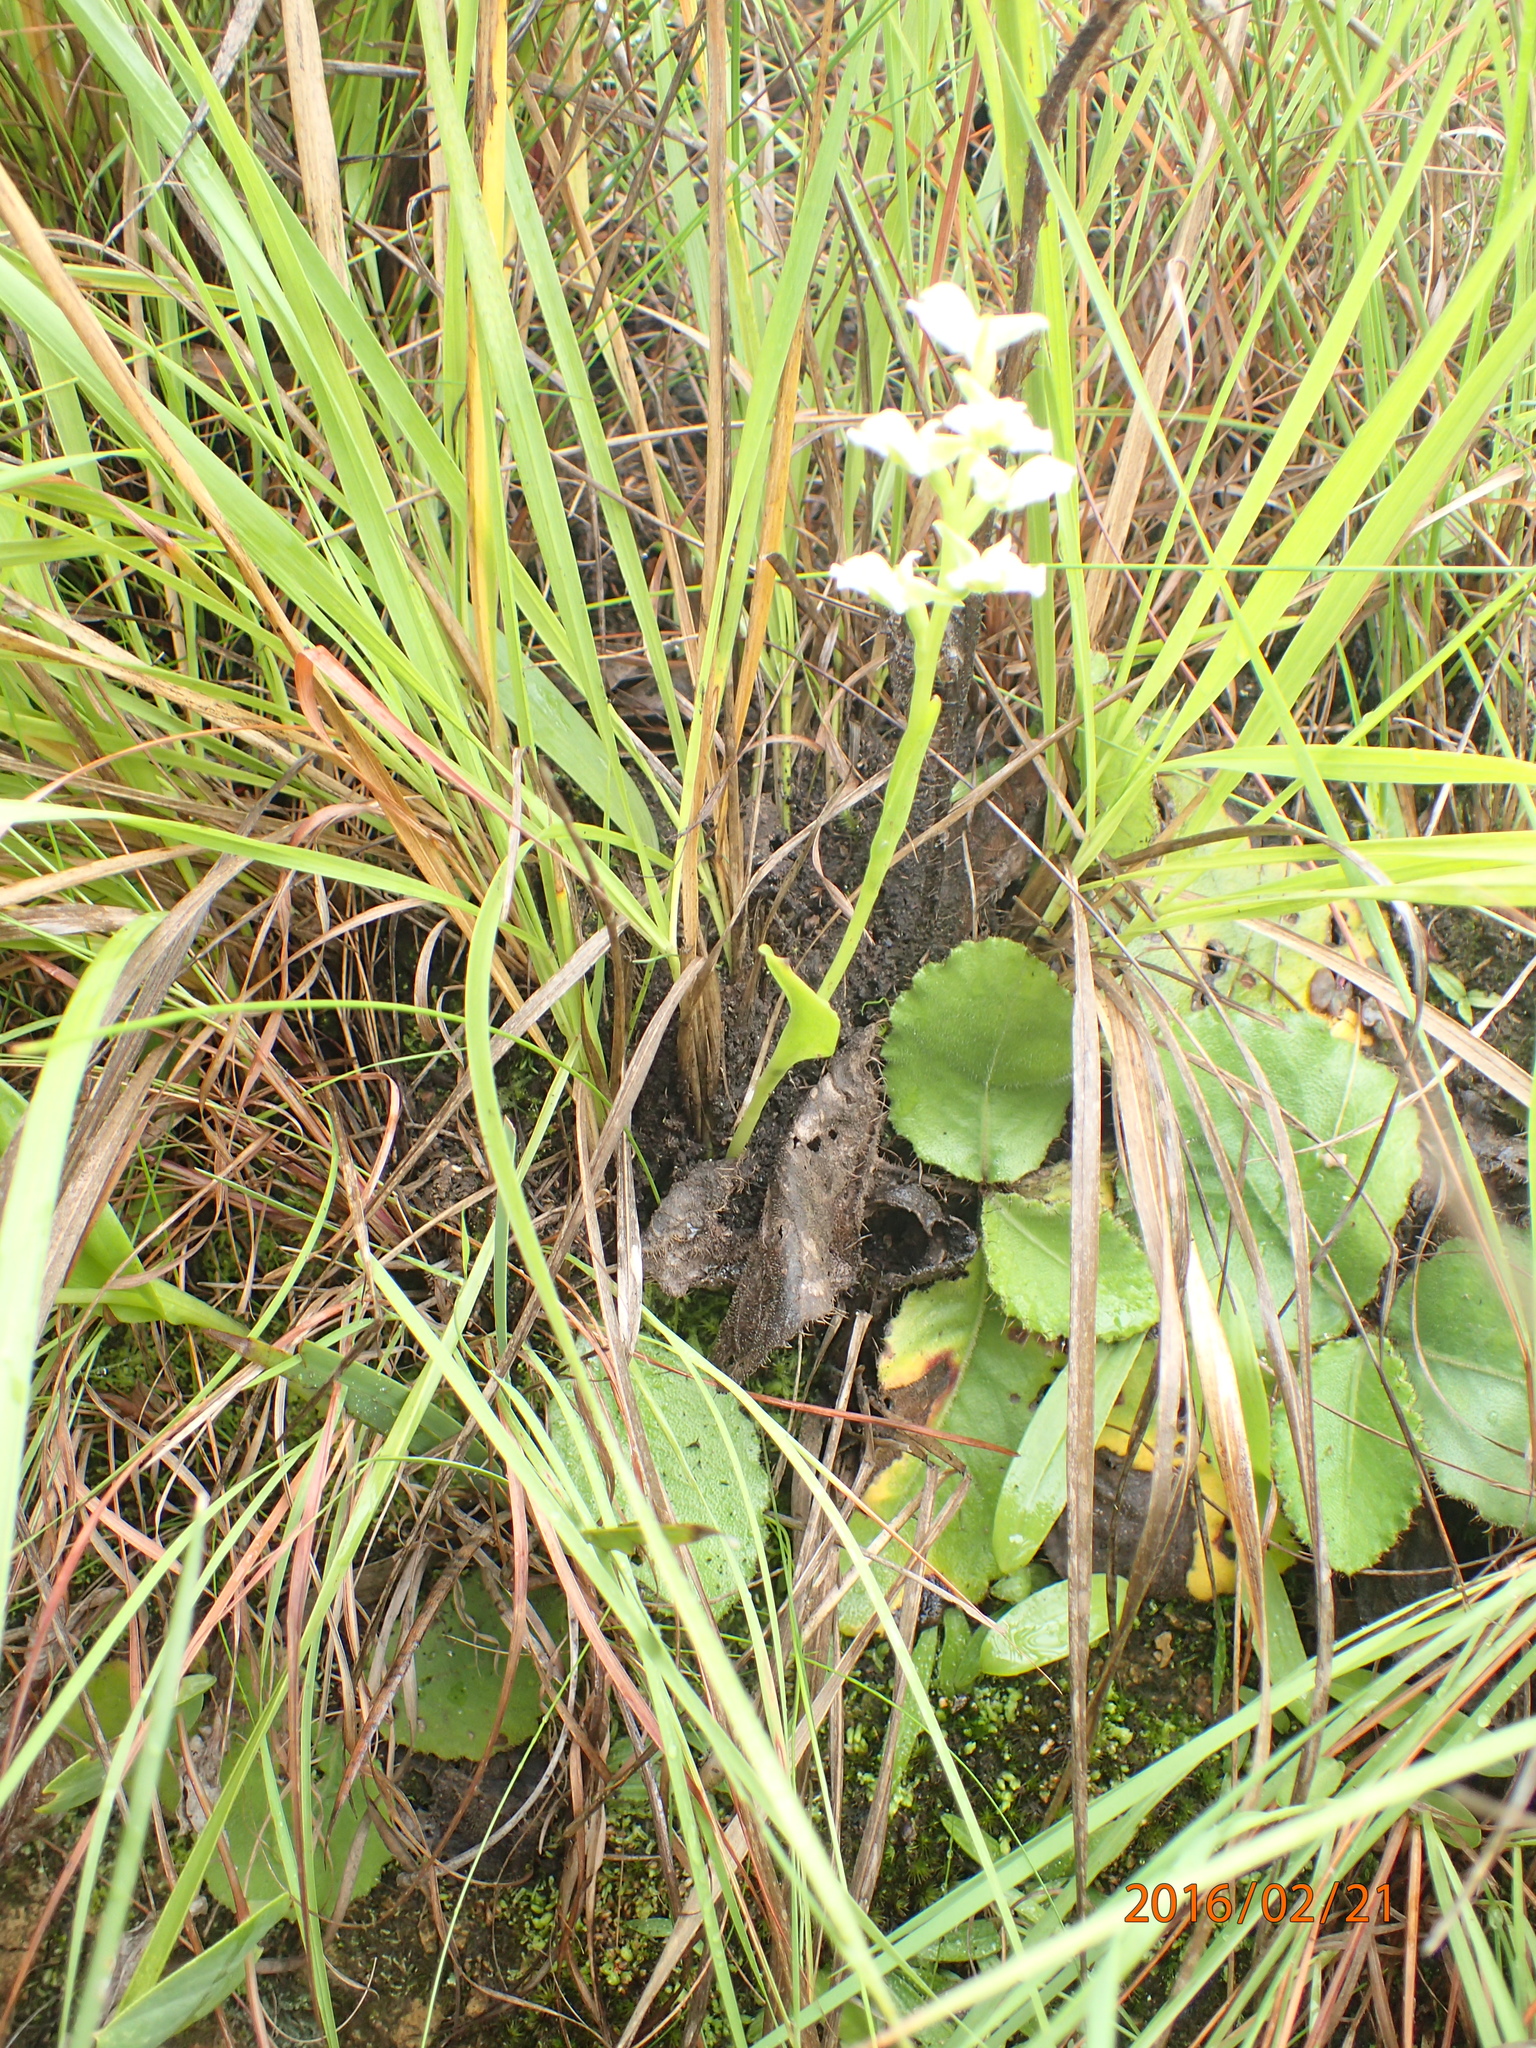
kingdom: Plantae
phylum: Tracheophyta
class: Liliopsida
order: Asparagales
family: Orchidaceae
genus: Pterygodium
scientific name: Pterygodium hastatum
